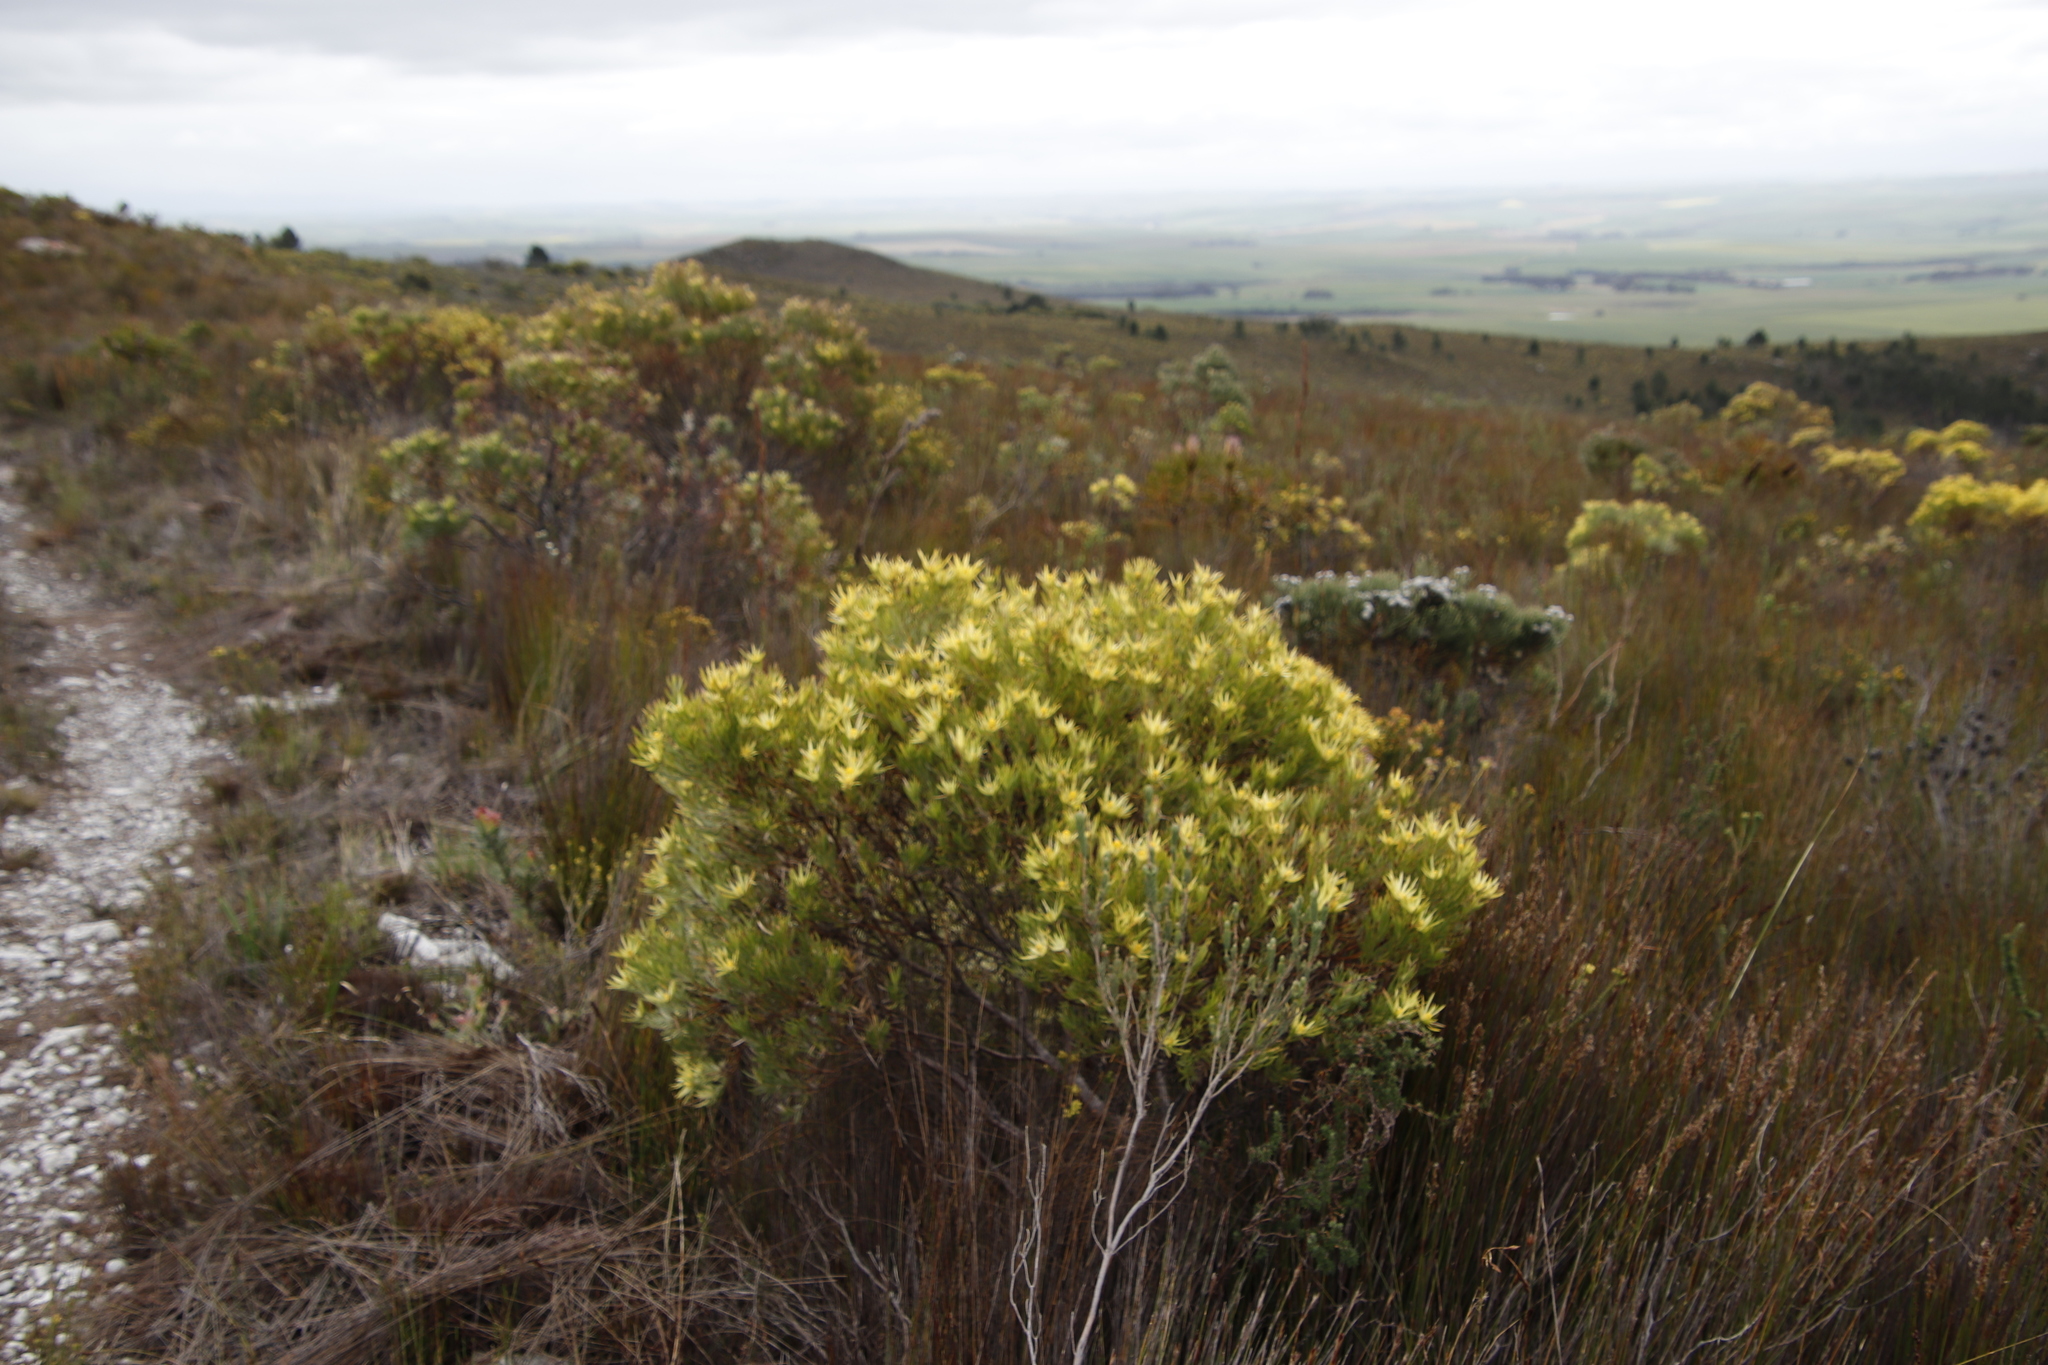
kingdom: Plantae
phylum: Tracheophyta
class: Magnoliopsida
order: Proteales
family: Proteaceae
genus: Leucadendron
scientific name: Leucadendron xanthoconus
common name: Sickle-leaf conebush
